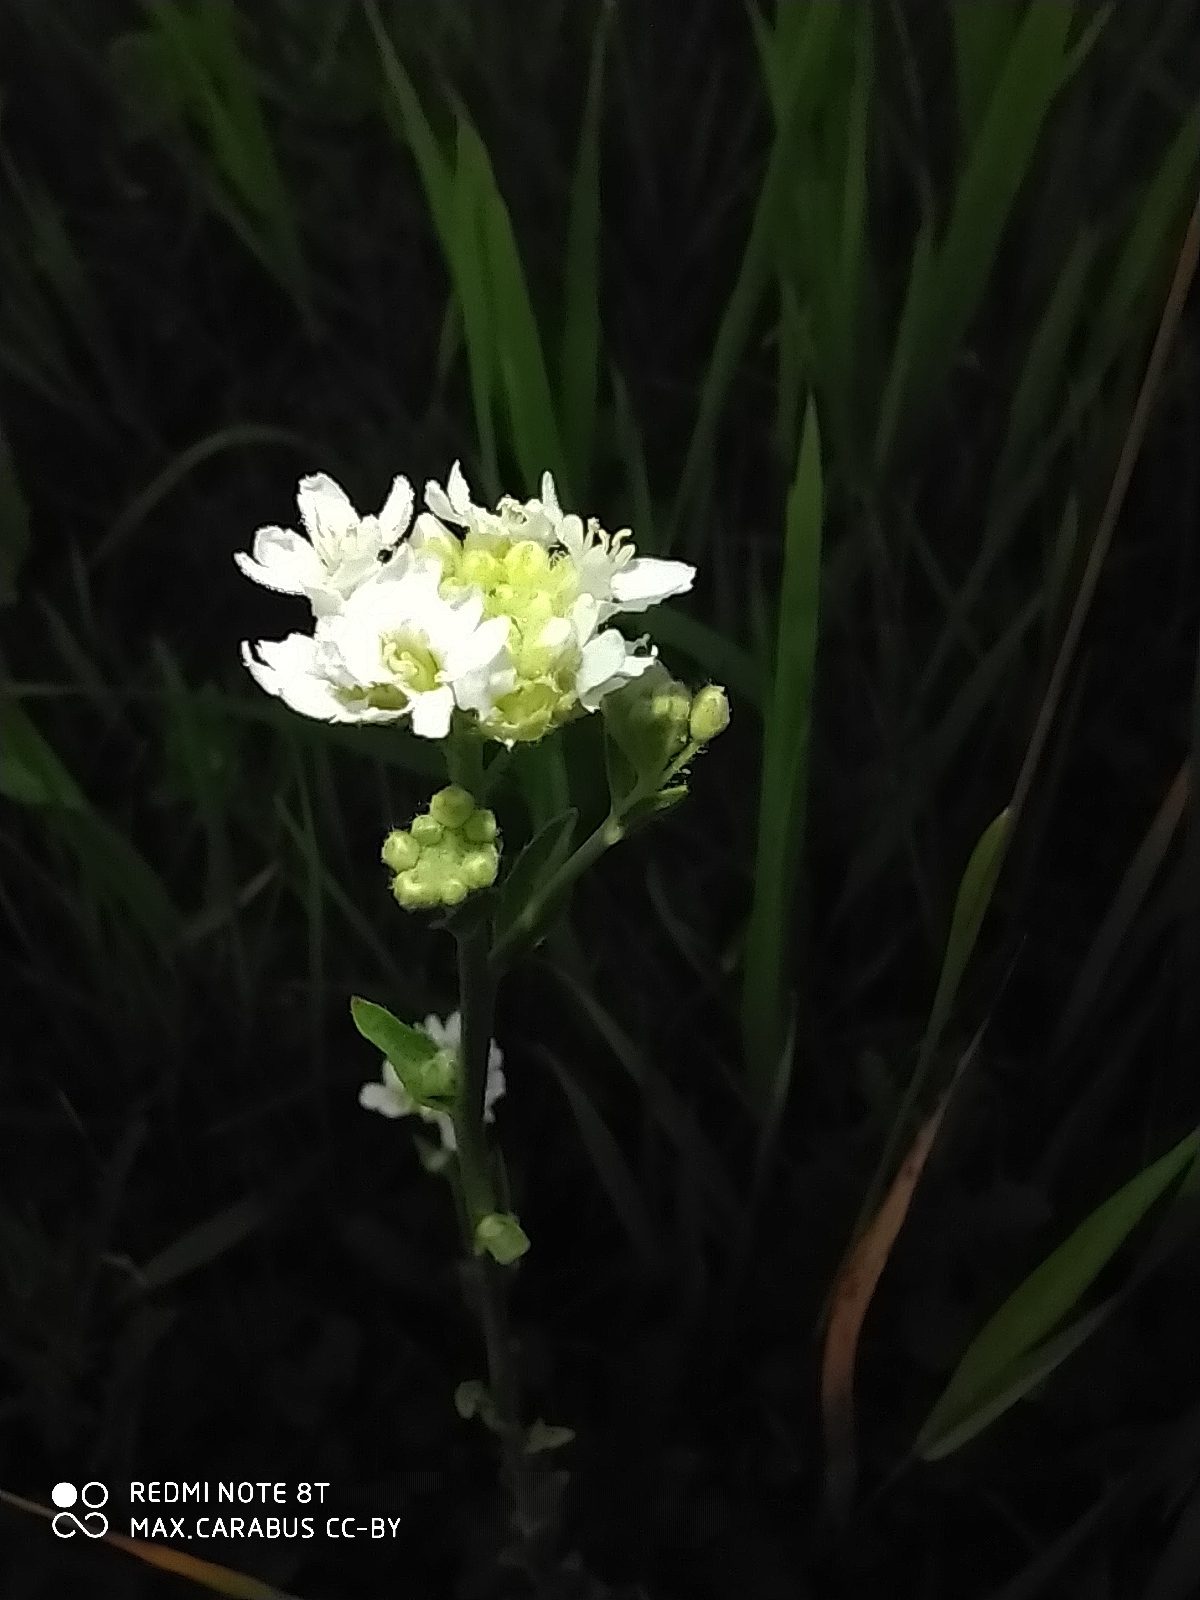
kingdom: Plantae
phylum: Tracheophyta
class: Magnoliopsida
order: Brassicales
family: Brassicaceae
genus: Berteroa
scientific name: Berteroa incana
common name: Hoary alison
